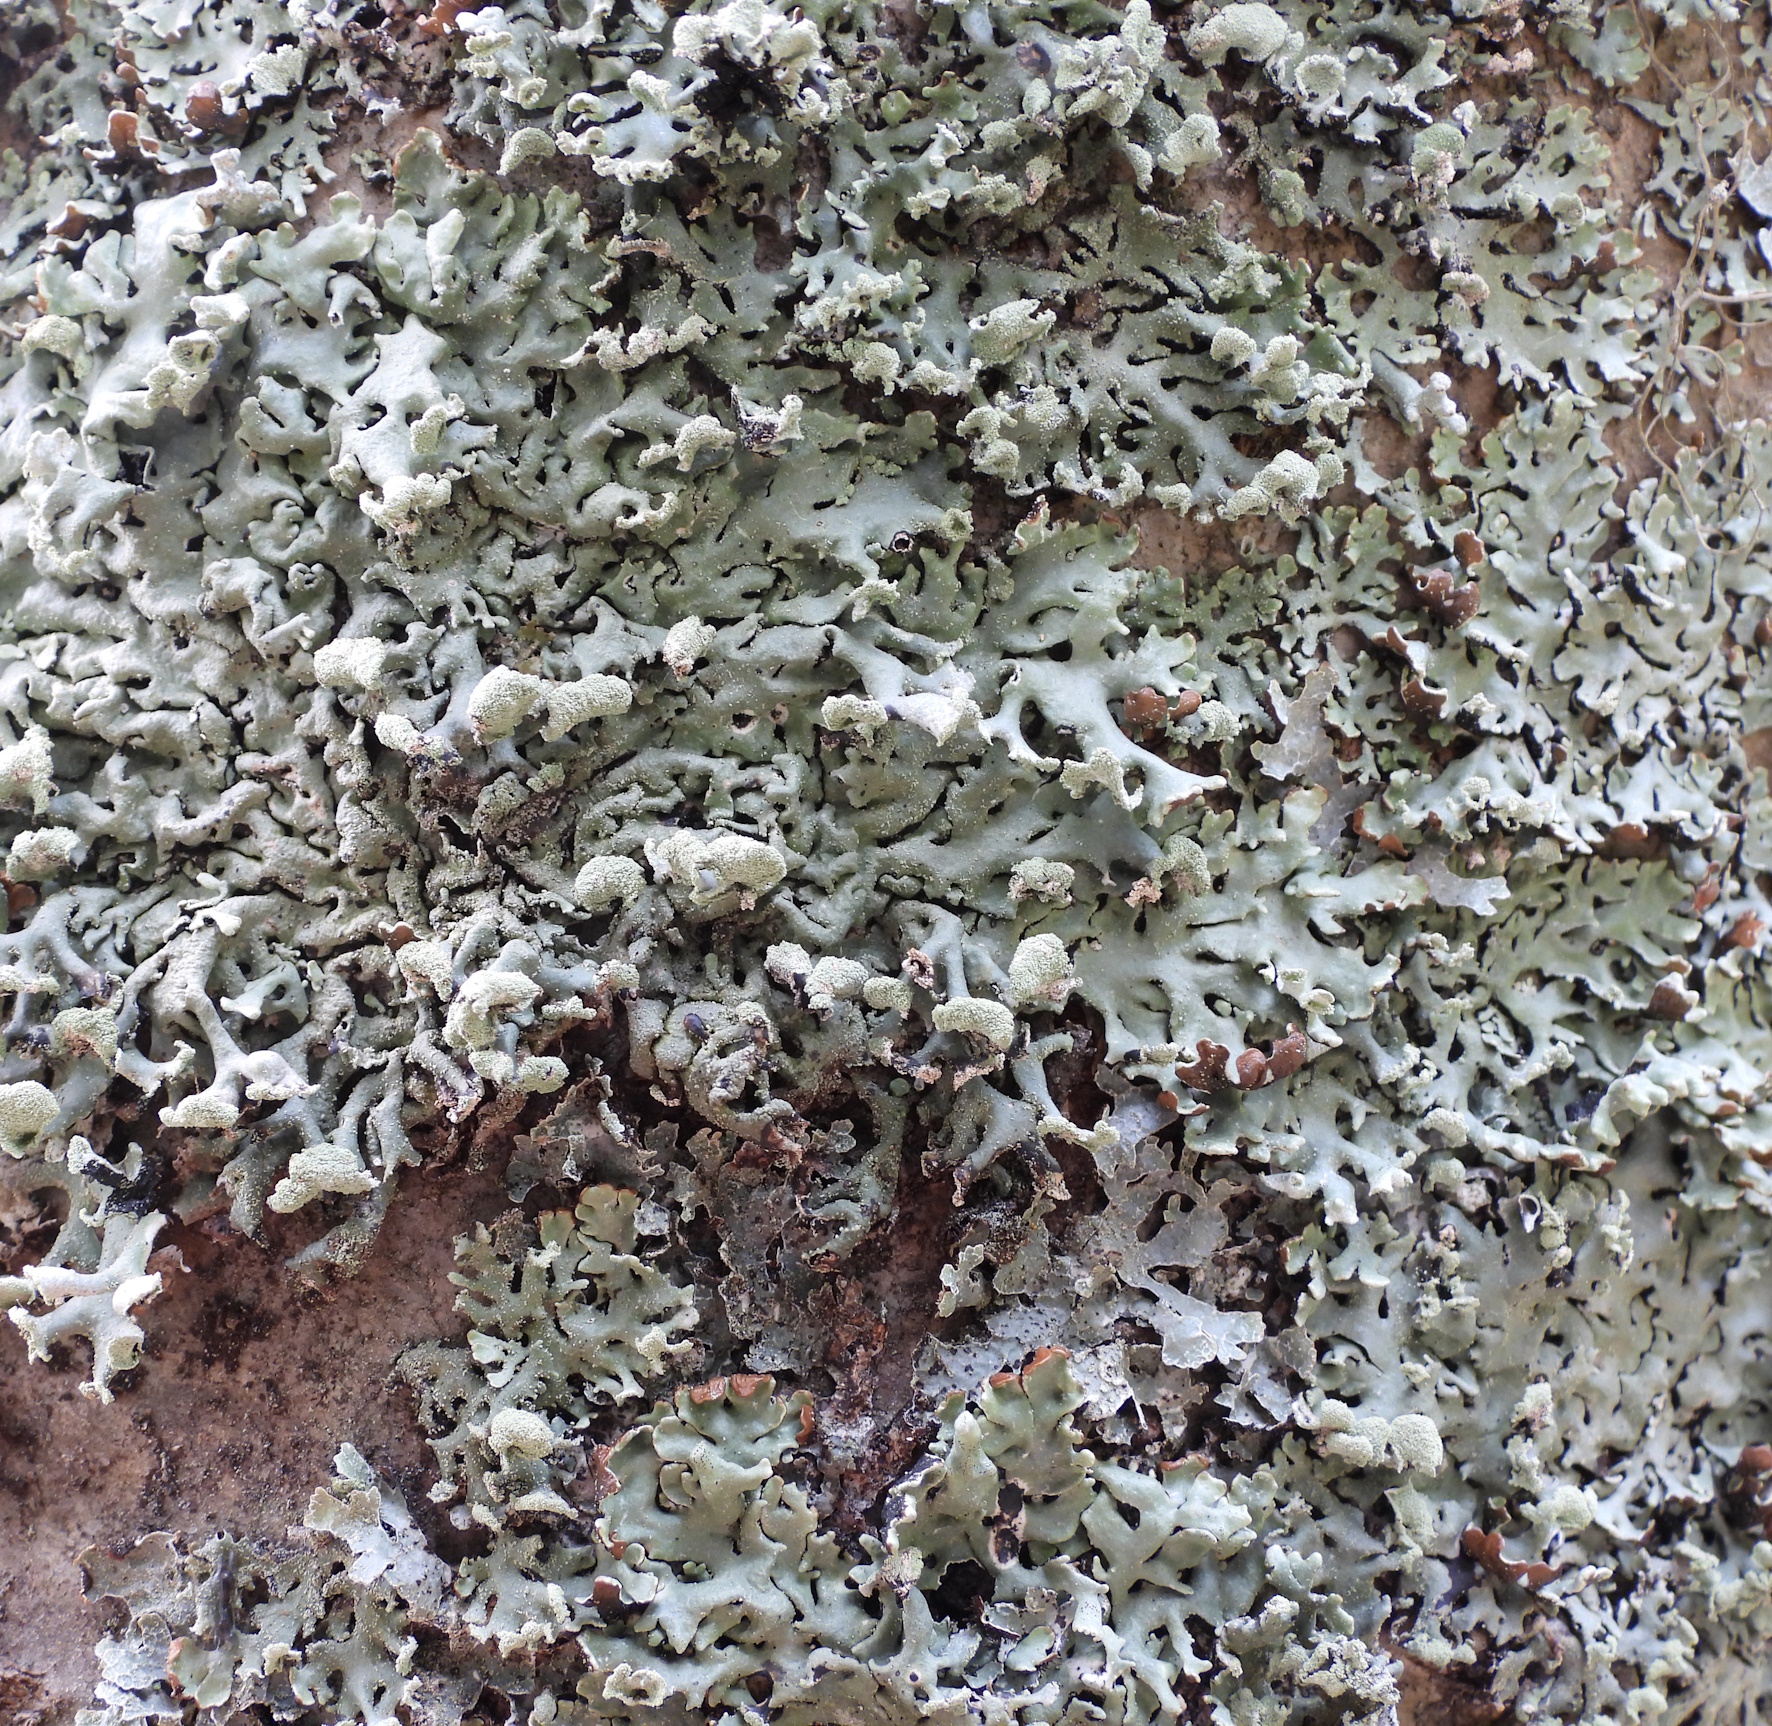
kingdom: Fungi
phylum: Ascomycota
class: Lecanoromycetes
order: Lecanorales
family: Parmeliaceae
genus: Hypogymnia
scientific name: Hypogymnia physodes
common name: Dark crottle
